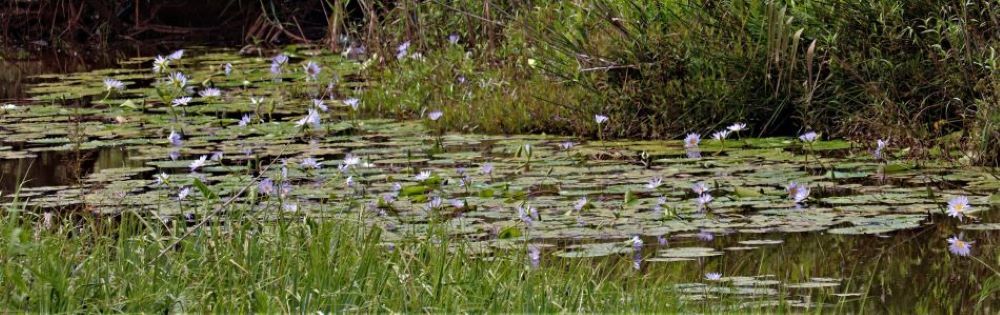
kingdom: Plantae
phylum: Tracheophyta
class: Magnoliopsida
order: Nymphaeales
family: Nymphaeaceae
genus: Nymphaea
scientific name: Nymphaea nouchali
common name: Blue lotus
